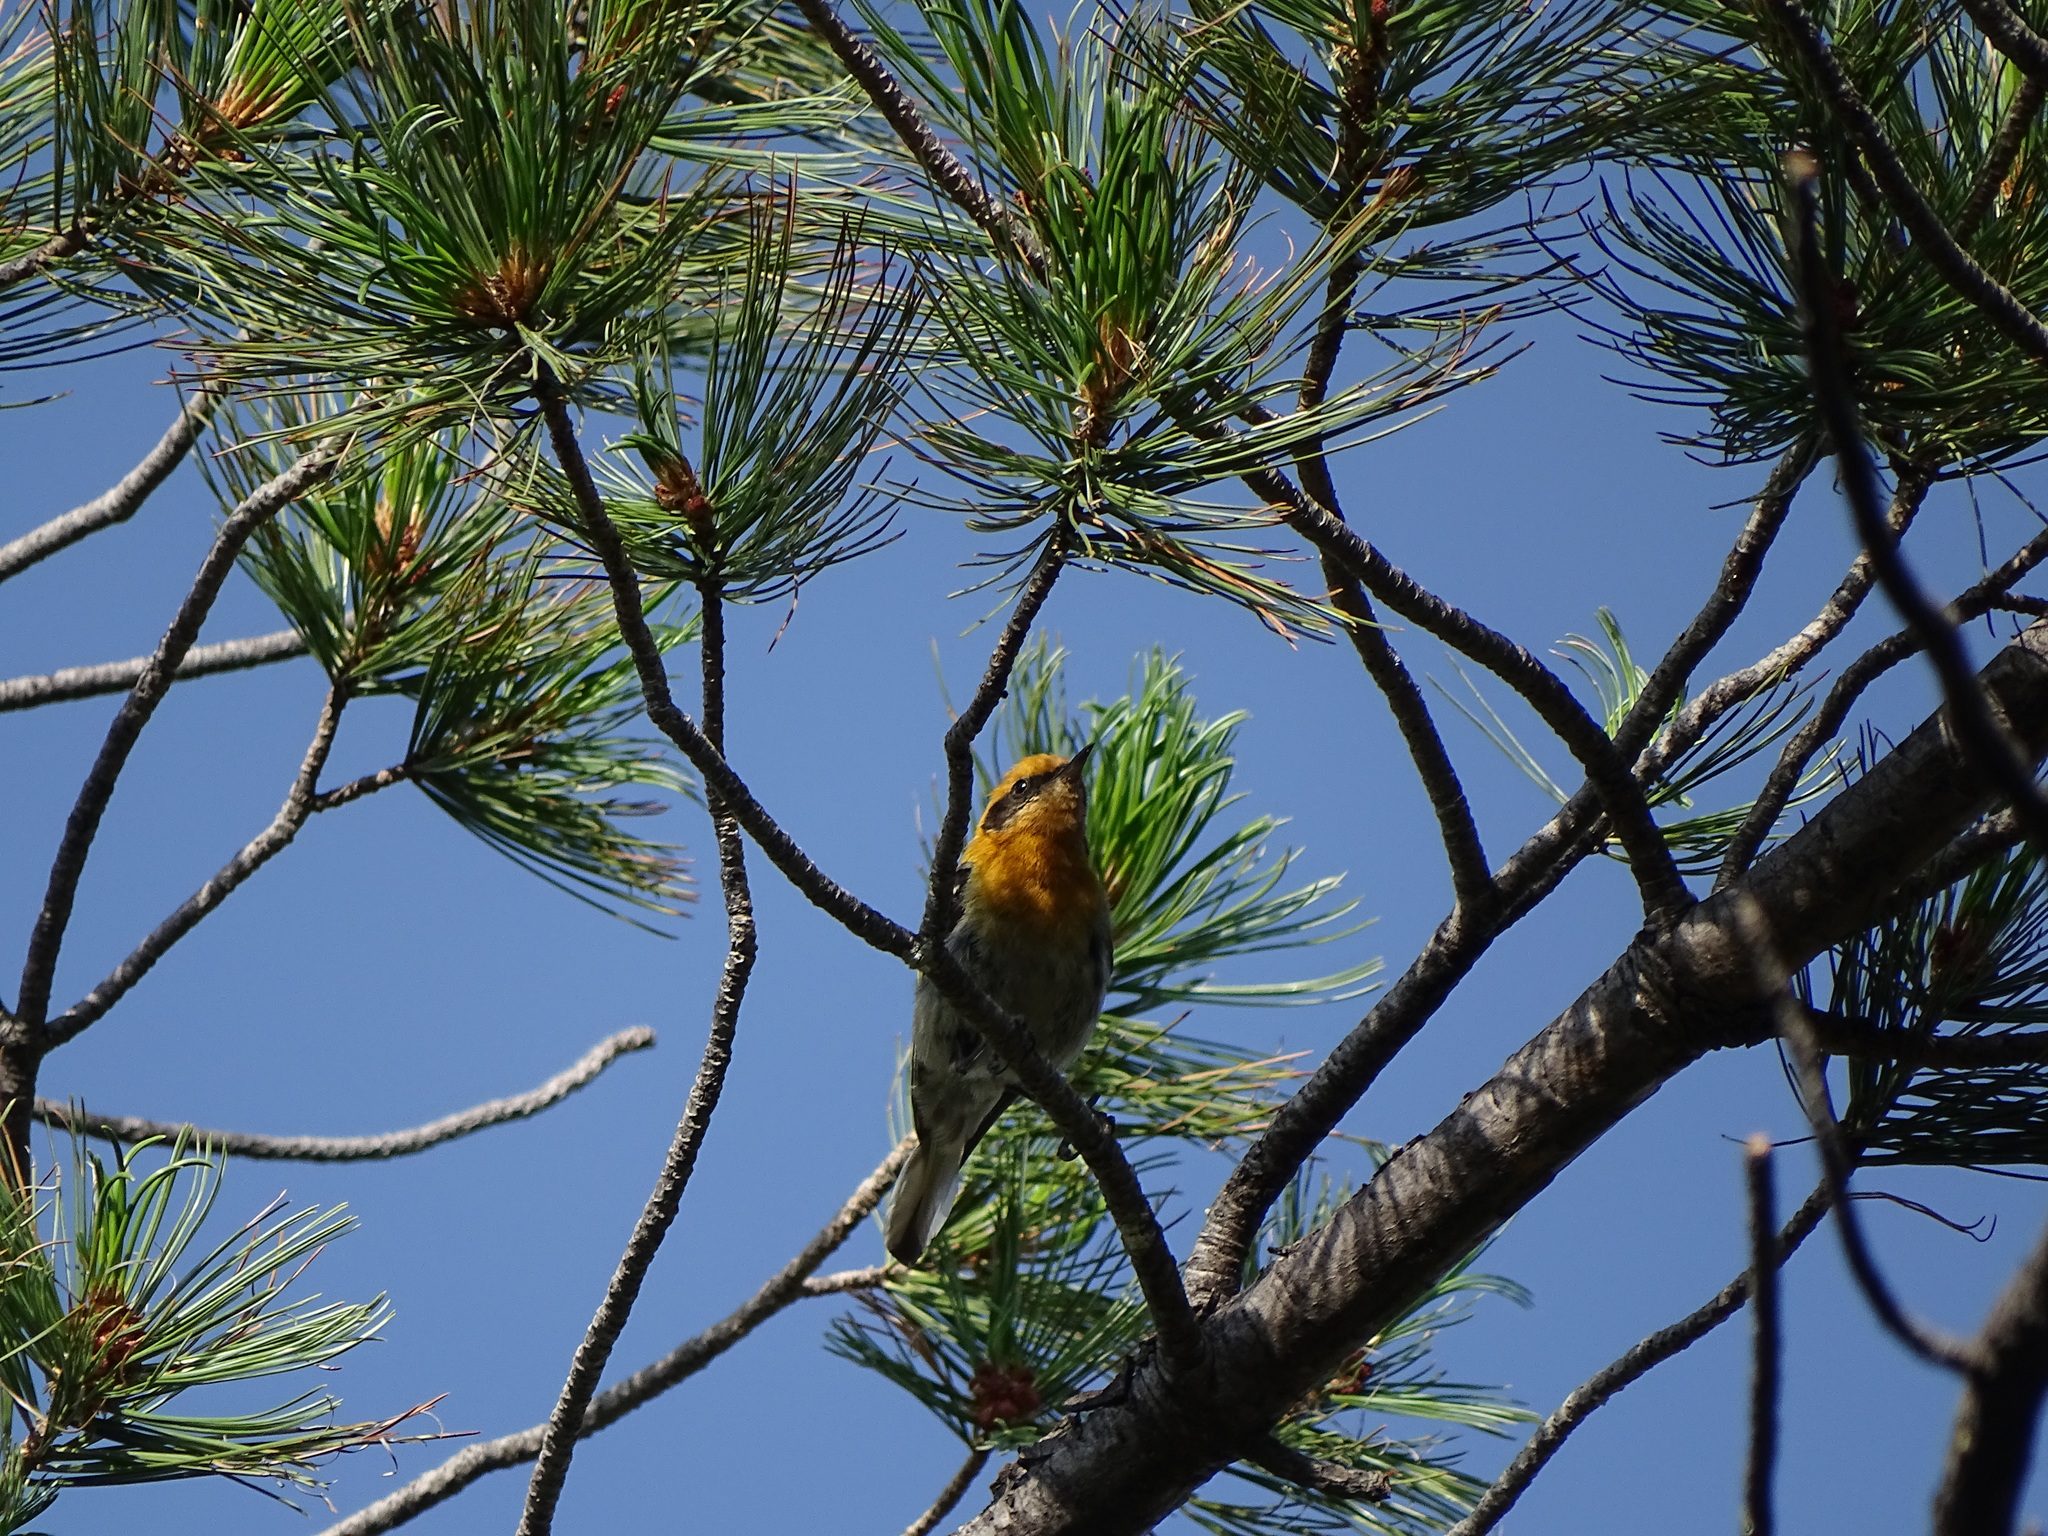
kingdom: Animalia
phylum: Chordata
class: Aves
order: Passeriformes
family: Peucedramidae
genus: Peucedramus
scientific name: Peucedramus taeniatus
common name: Olive warbler
